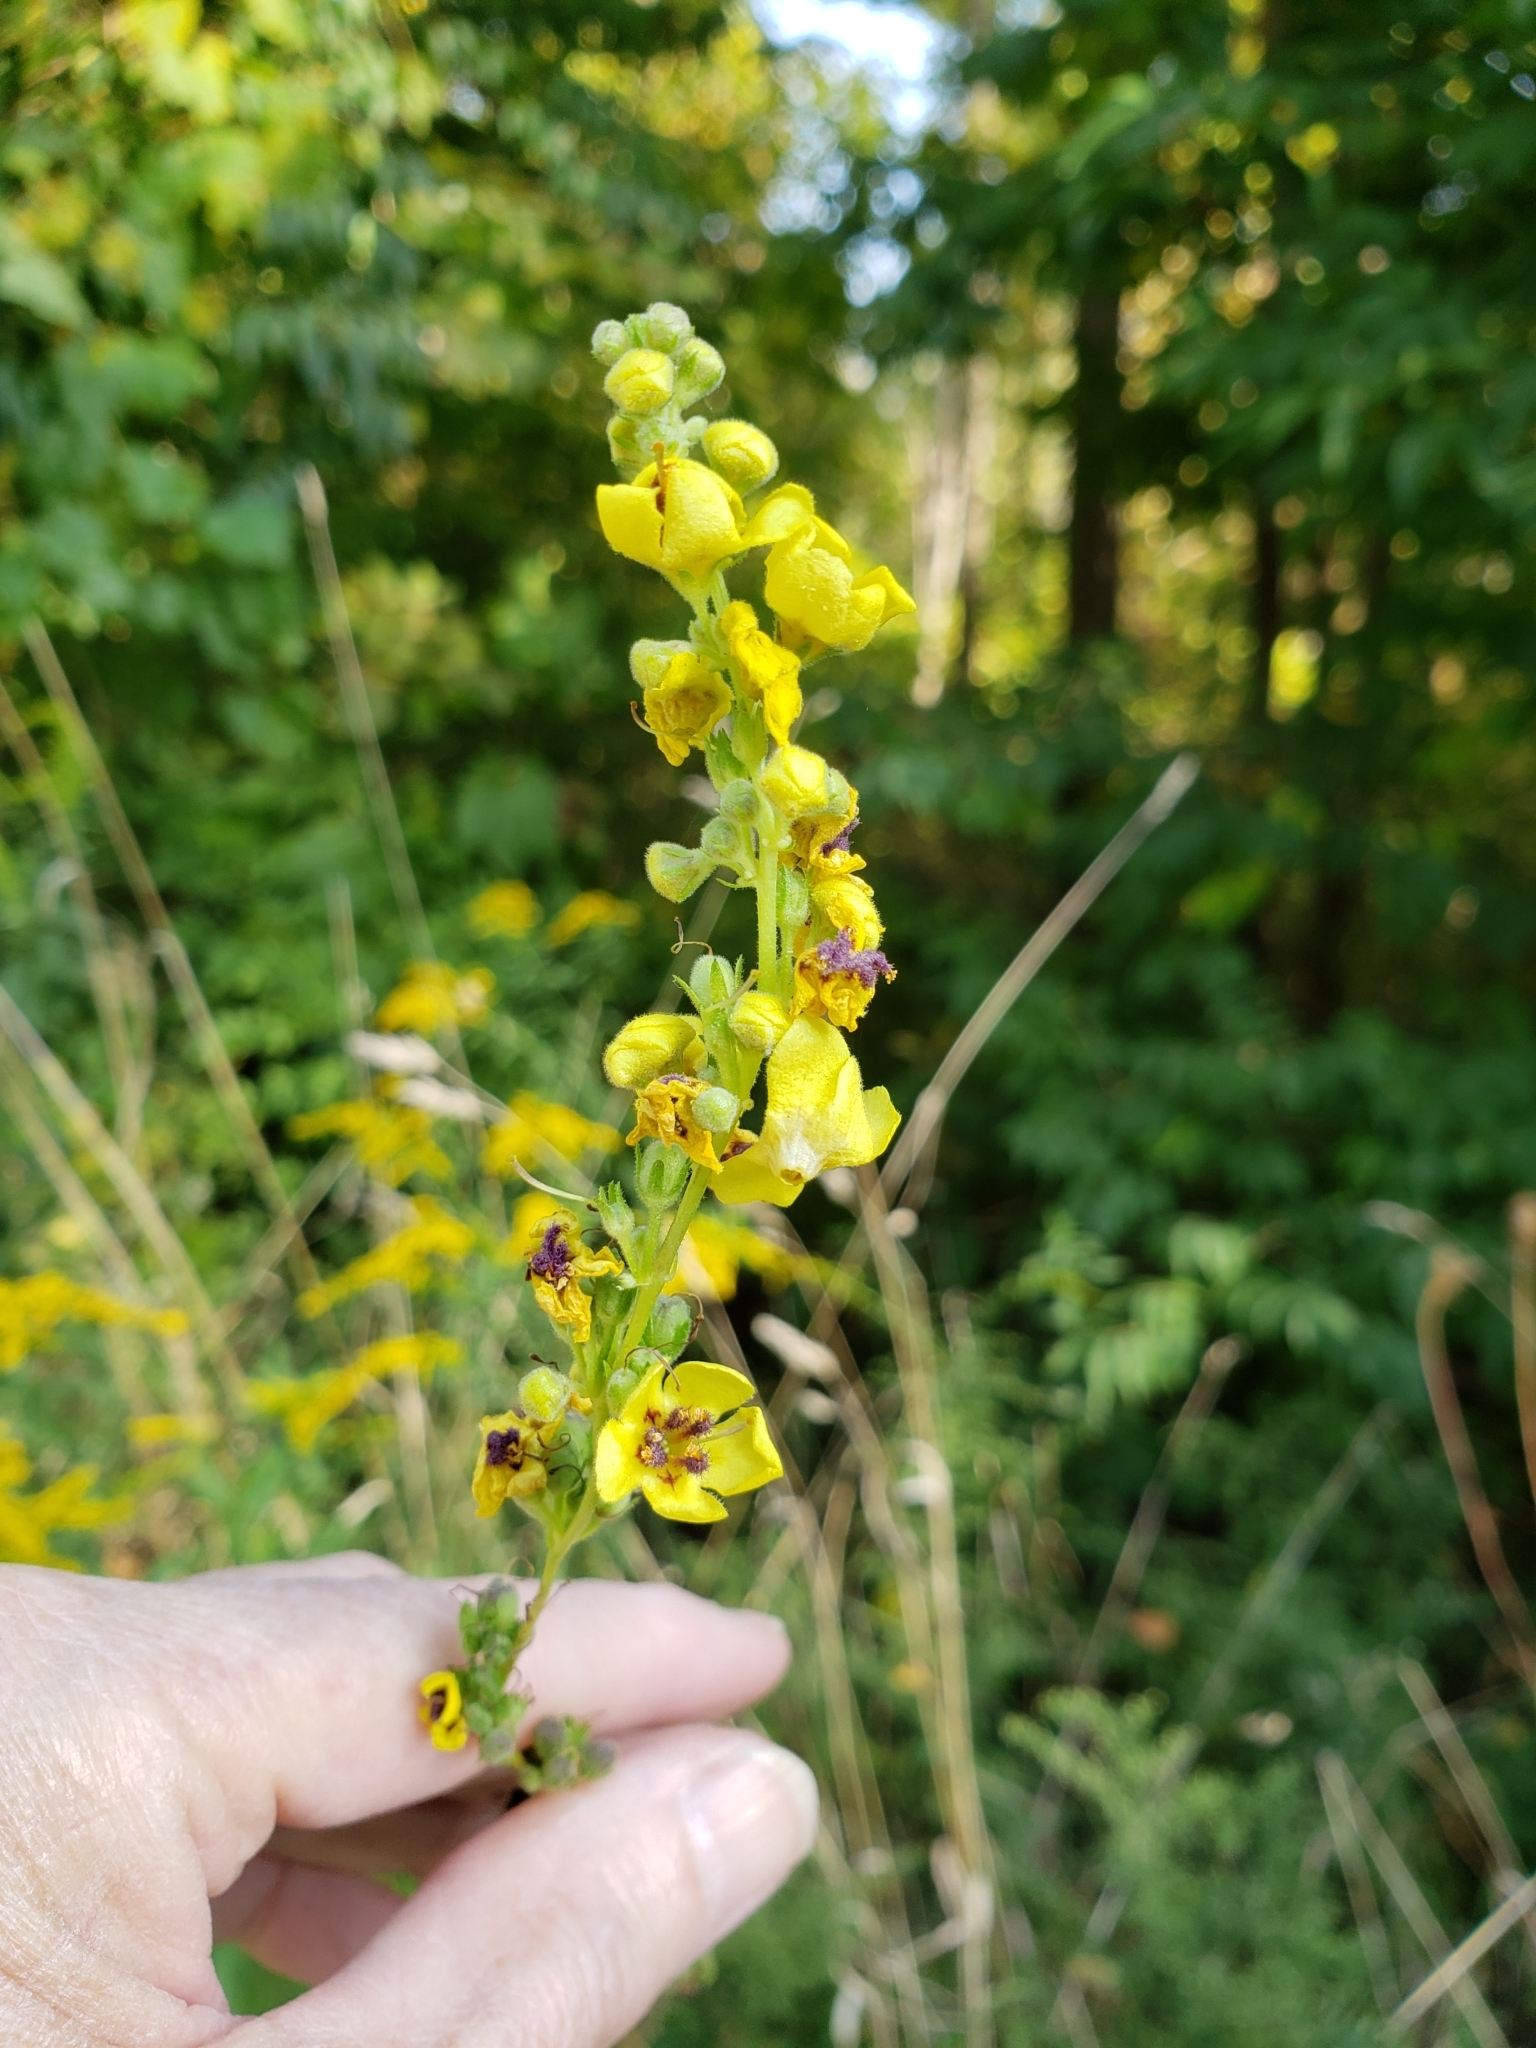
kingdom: Plantae
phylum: Tracheophyta
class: Magnoliopsida
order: Lamiales
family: Scrophulariaceae
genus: Verbascum
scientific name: Verbascum nigrum
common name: Dark mullein
